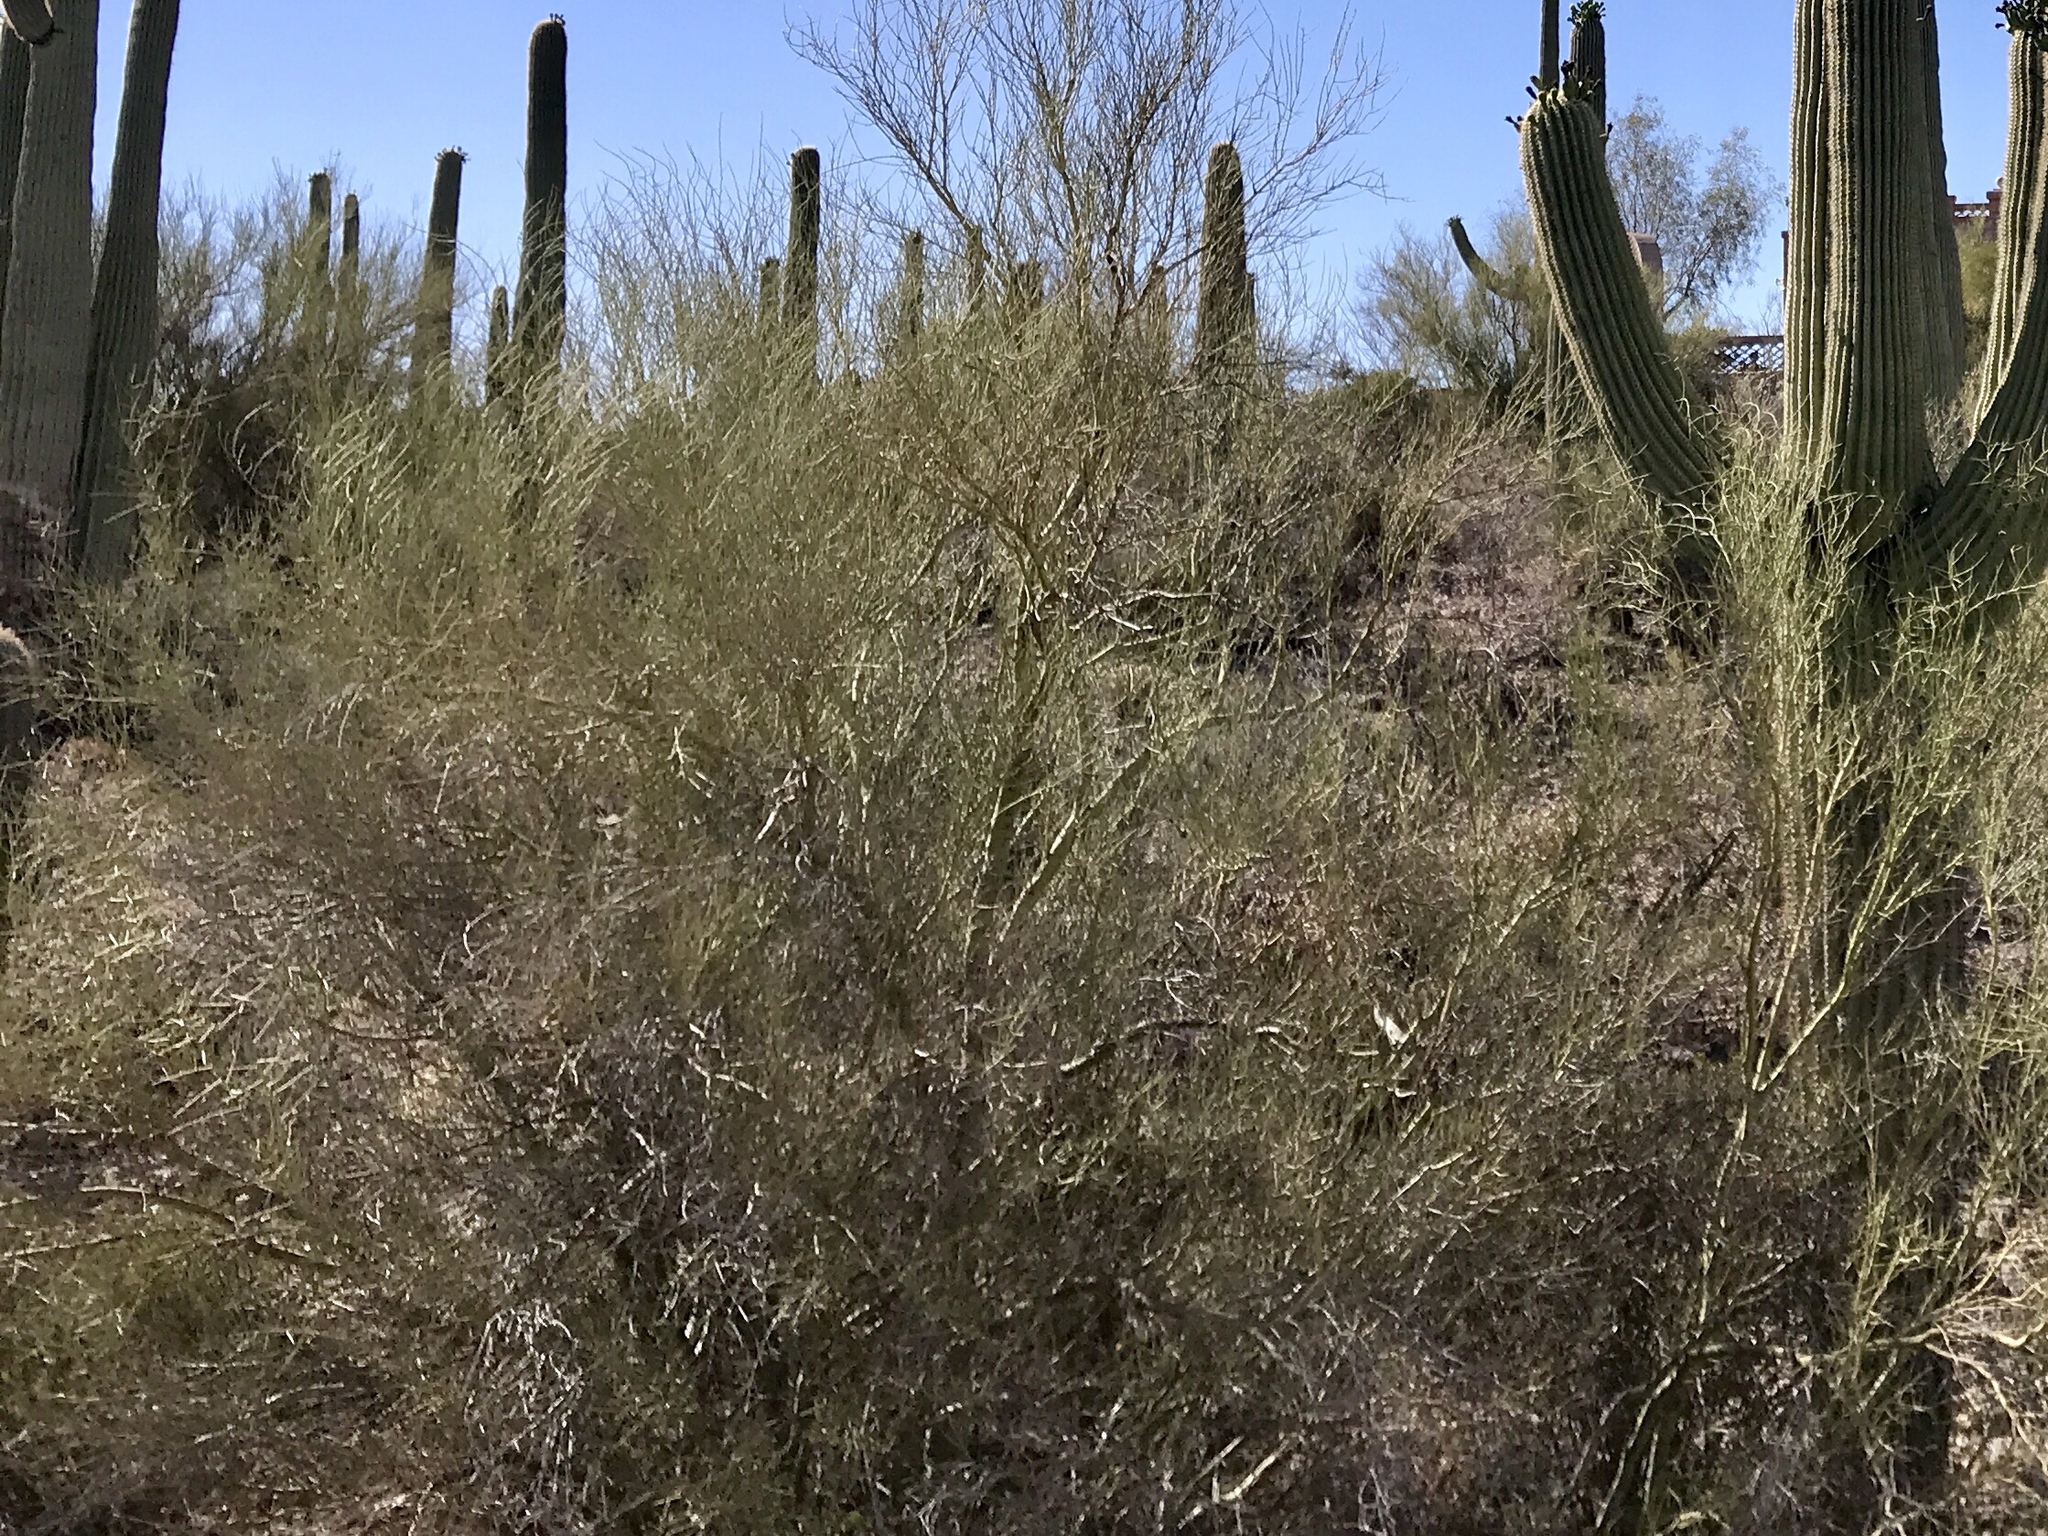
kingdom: Plantae
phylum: Tracheophyta
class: Magnoliopsida
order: Fabales
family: Fabaceae
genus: Parkinsonia
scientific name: Parkinsonia microphylla
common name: Yellow paloverde
